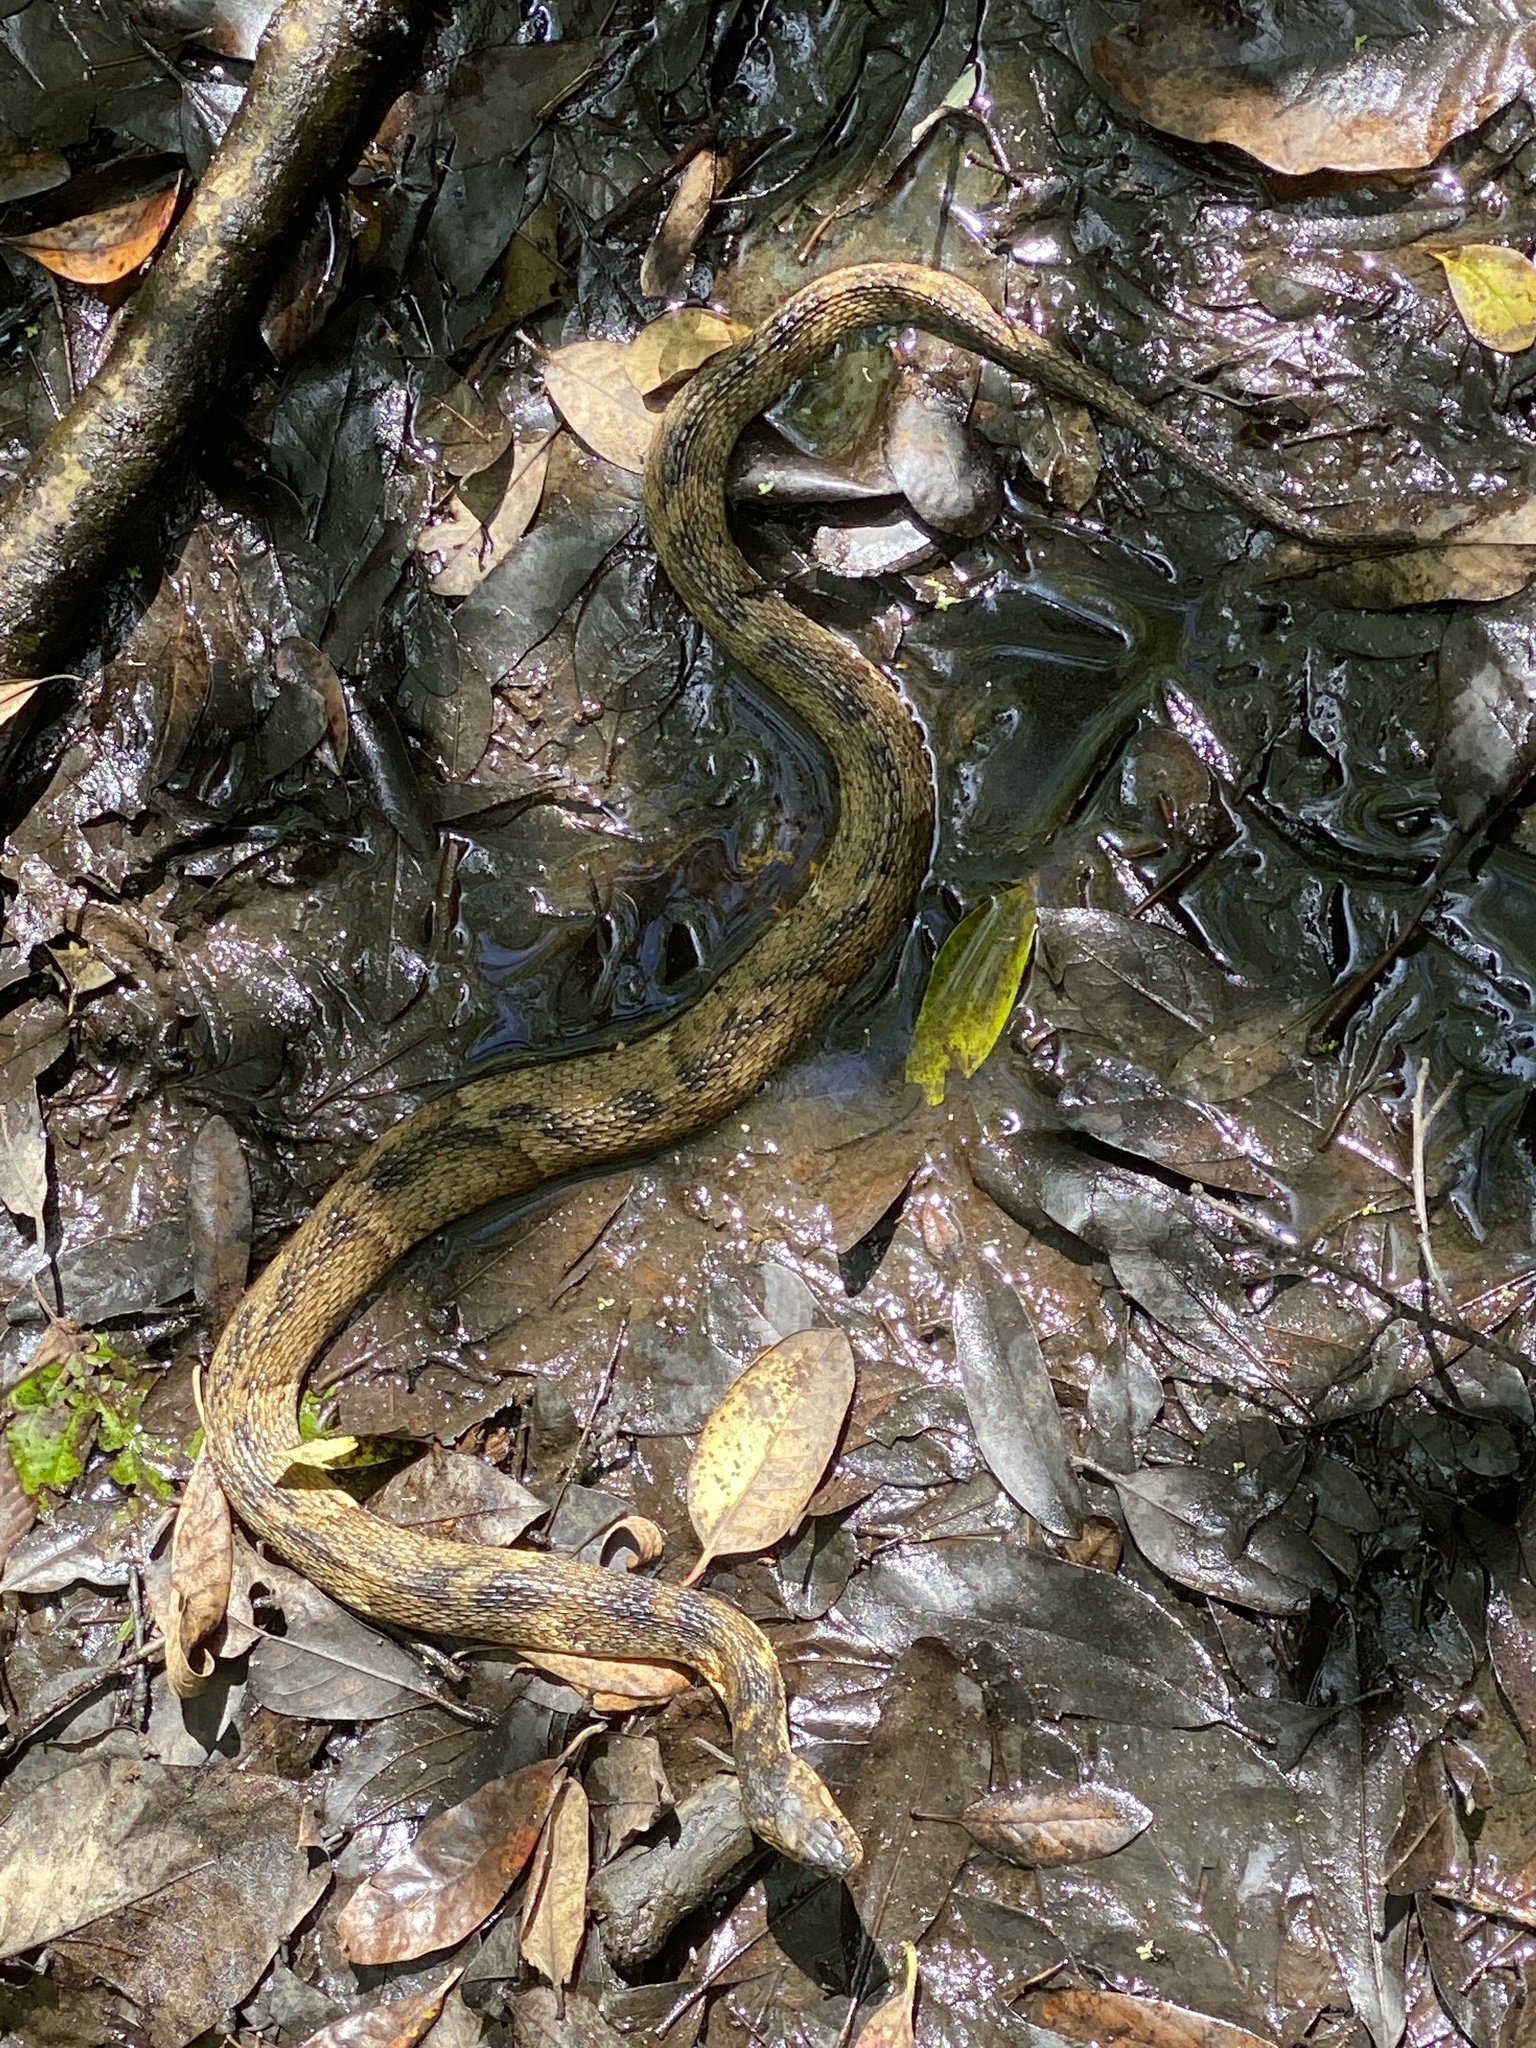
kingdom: Animalia
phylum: Chordata
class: Squamata
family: Colubridae
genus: Nerodia
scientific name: Nerodia fasciata
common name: Southern water snake
